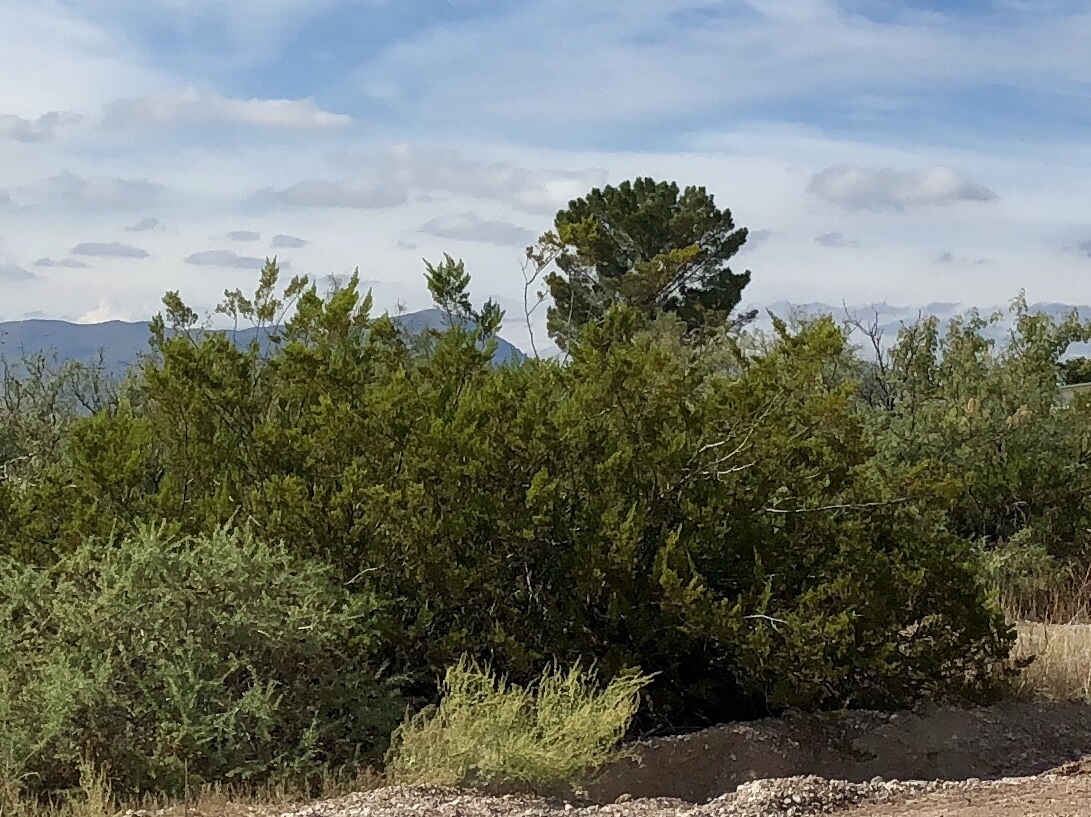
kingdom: Plantae
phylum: Tracheophyta
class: Magnoliopsida
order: Zygophyllales
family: Zygophyllaceae
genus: Larrea
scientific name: Larrea tridentata
